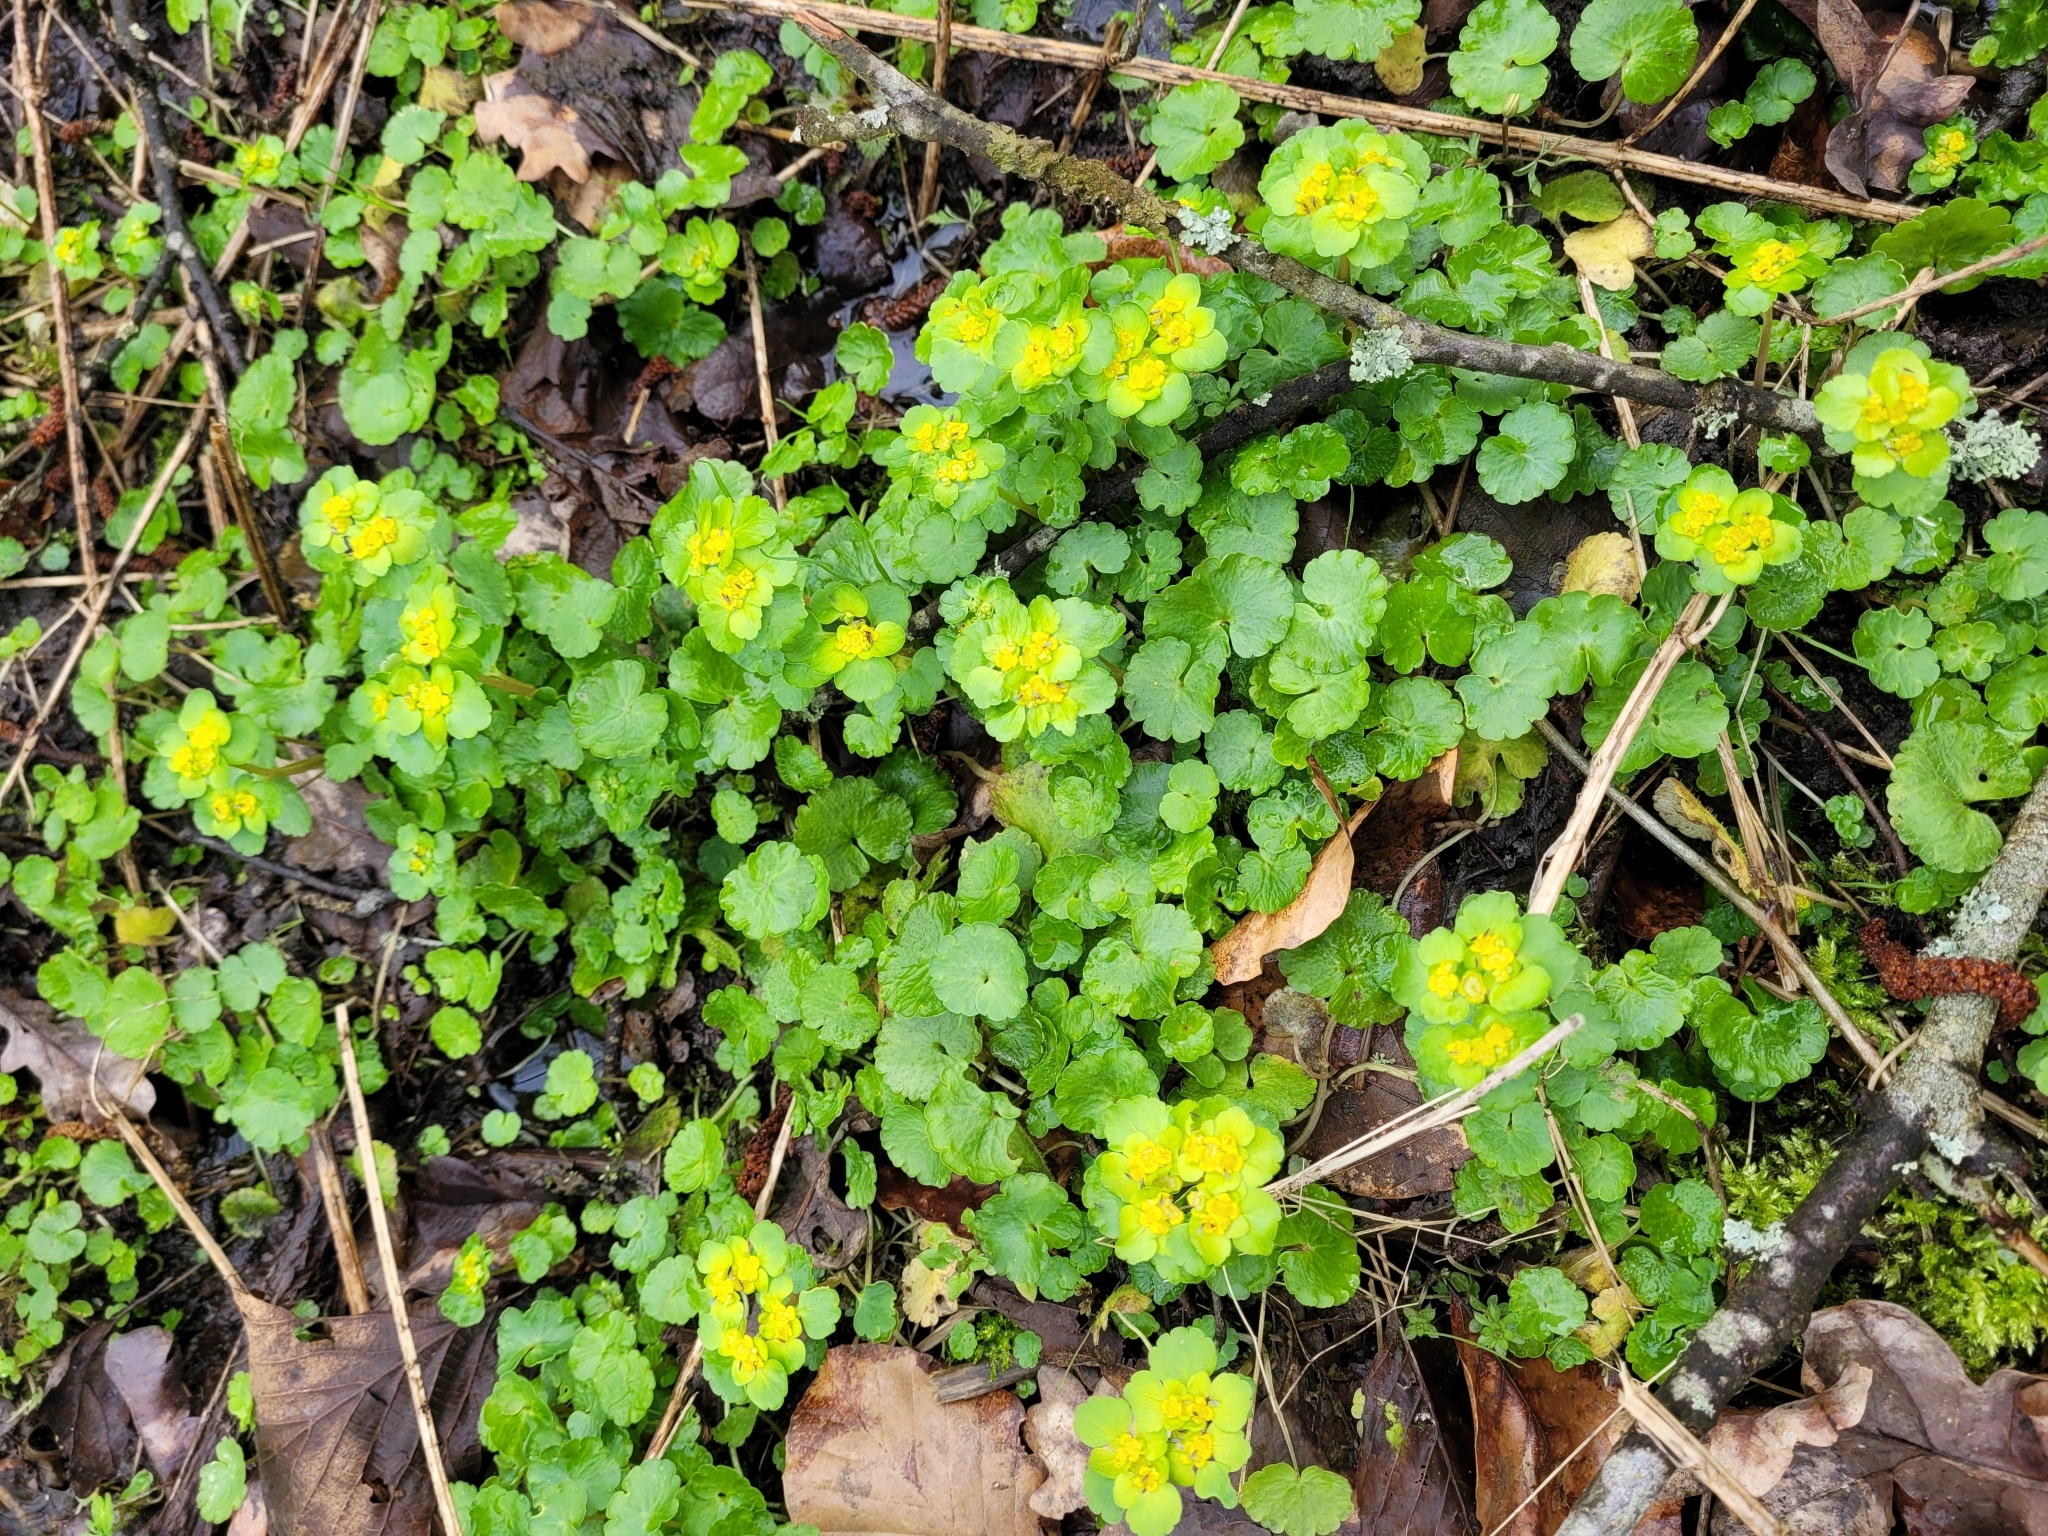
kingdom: Plantae
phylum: Tracheophyta
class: Magnoliopsida
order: Saxifragales
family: Saxifragaceae
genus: Chrysosplenium
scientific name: Chrysosplenium alternifolium
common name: Alternate-leaved golden-saxifrage
